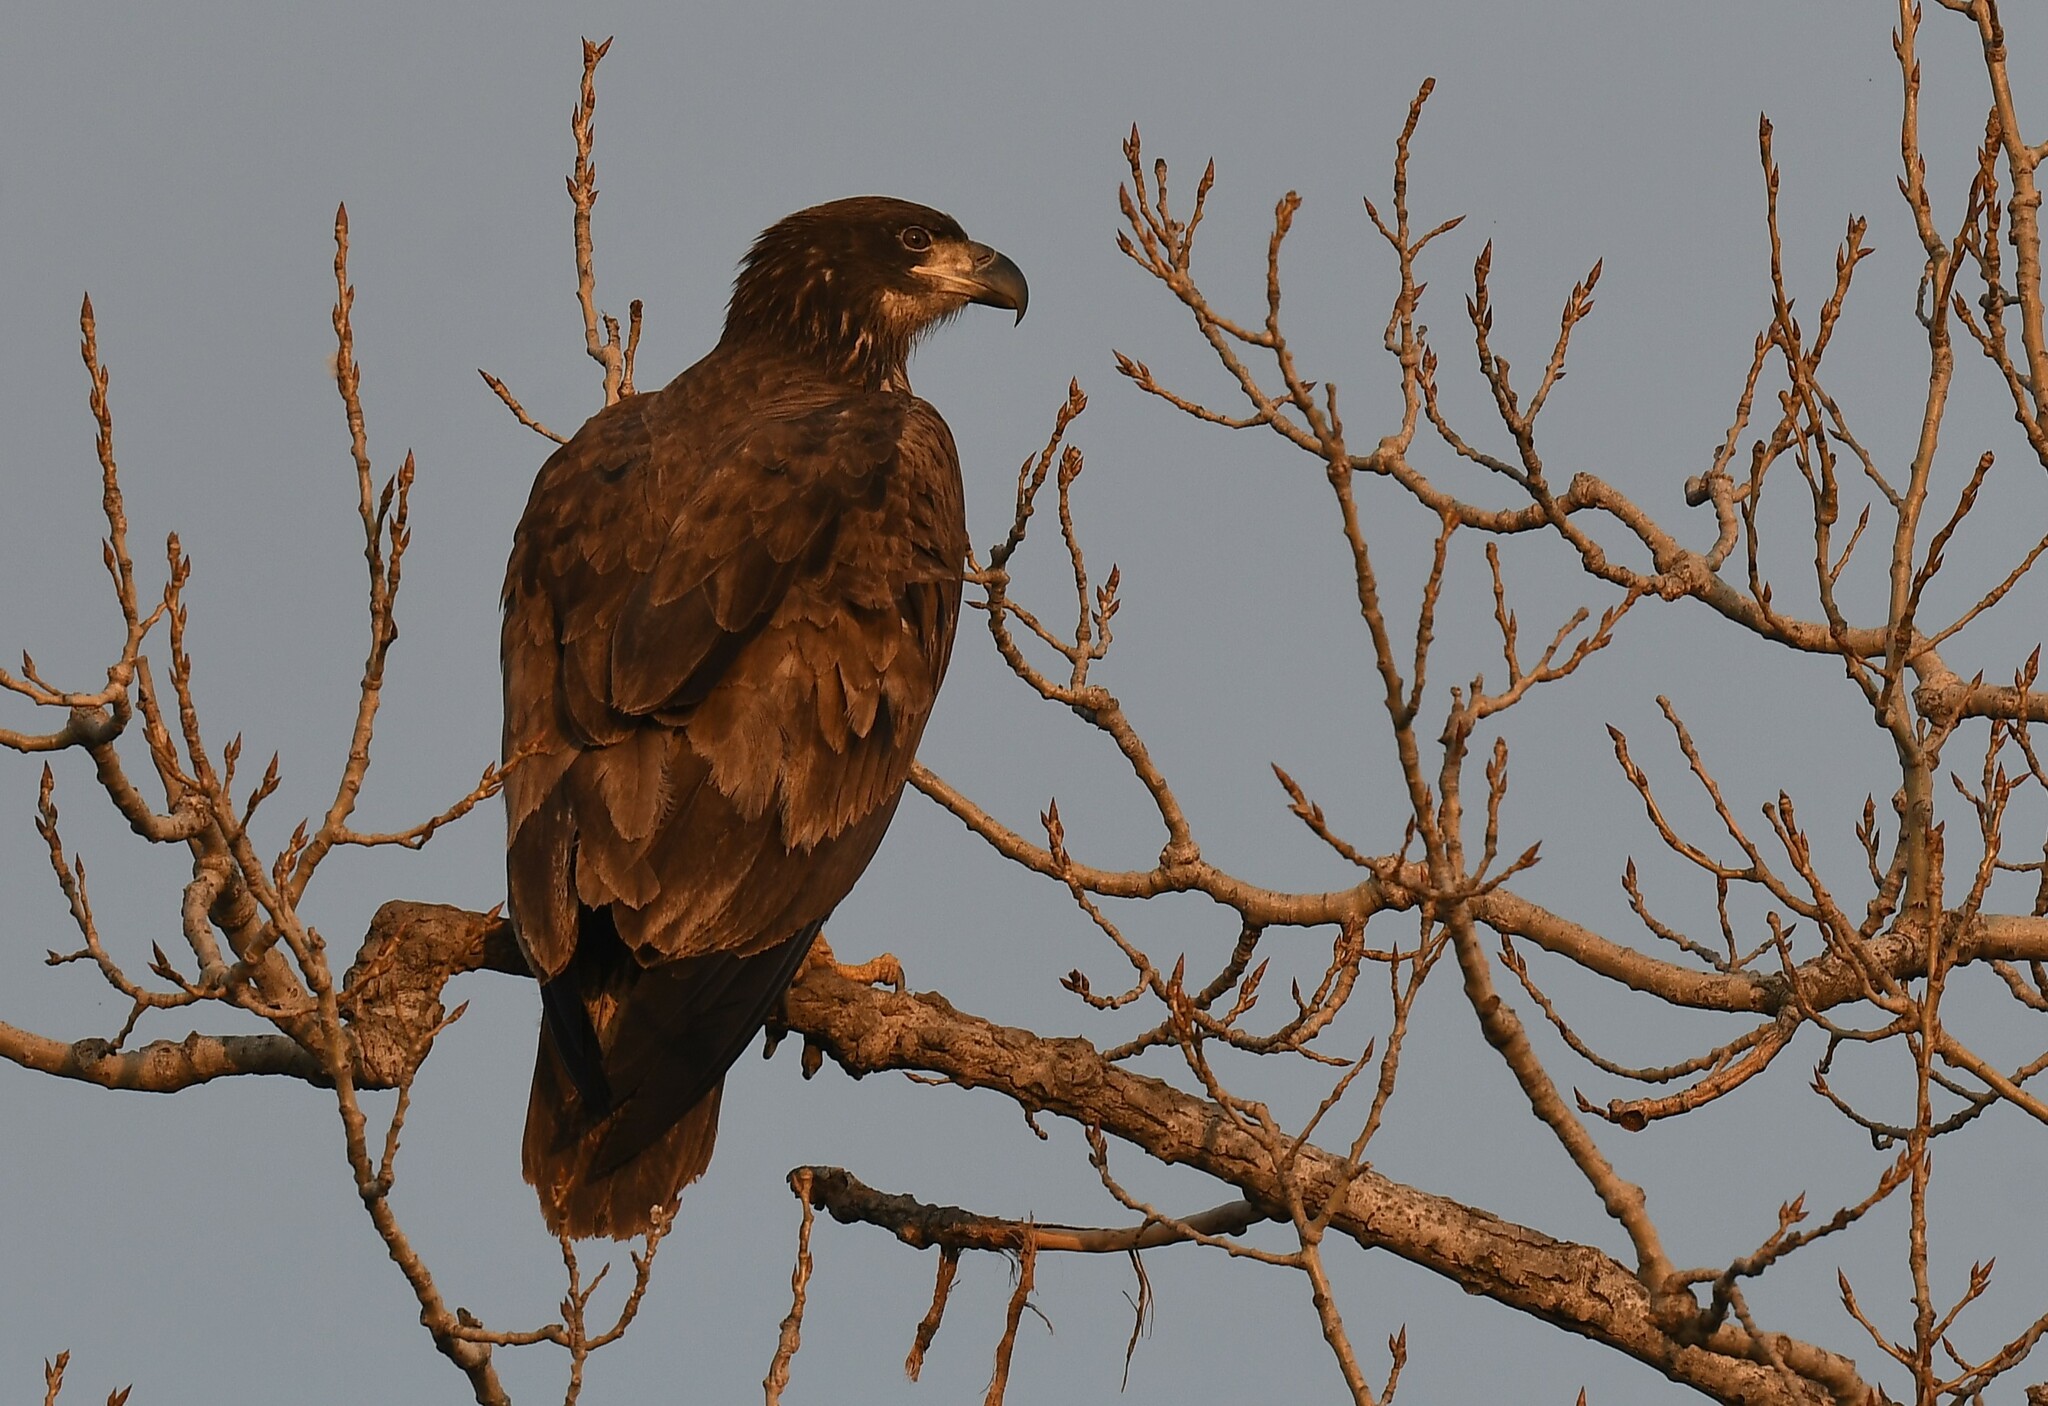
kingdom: Animalia
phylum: Chordata
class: Aves
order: Accipitriformes
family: Accipitridae
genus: Haliaeetus
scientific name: Haliaeetus leucocephalus
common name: Bald eagle
